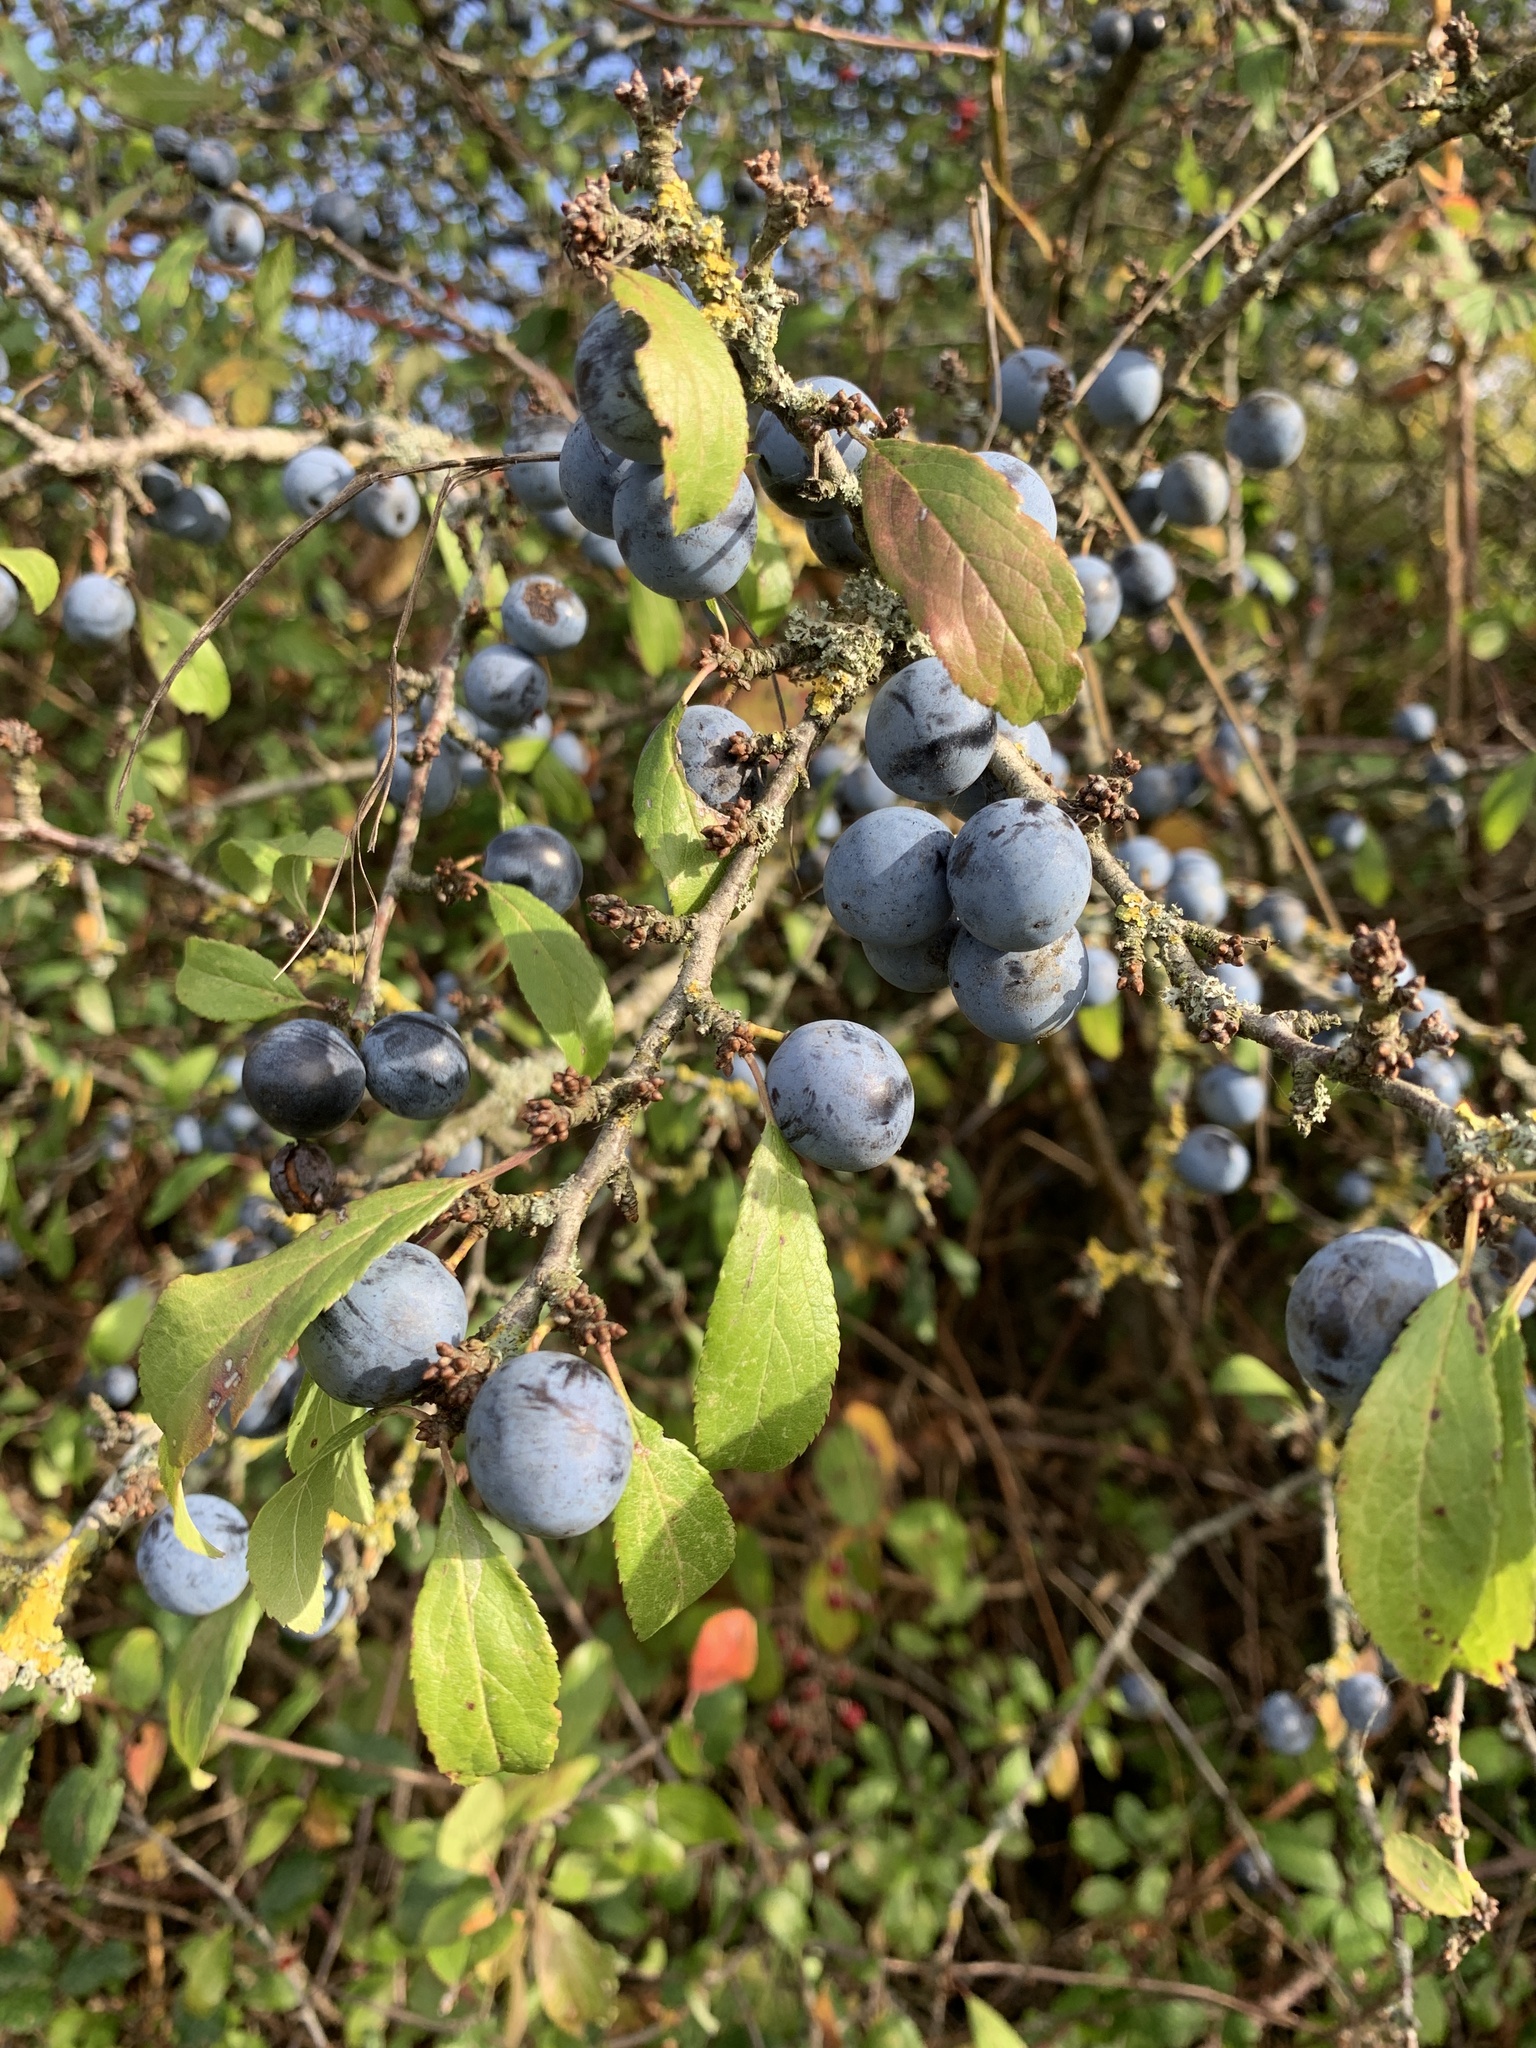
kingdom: Plantae
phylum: Tracheophyta
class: Magnoliopsida
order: Rosales
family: Rosaceae
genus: Prunus
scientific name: Prunus spinosa
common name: Blackthorn
